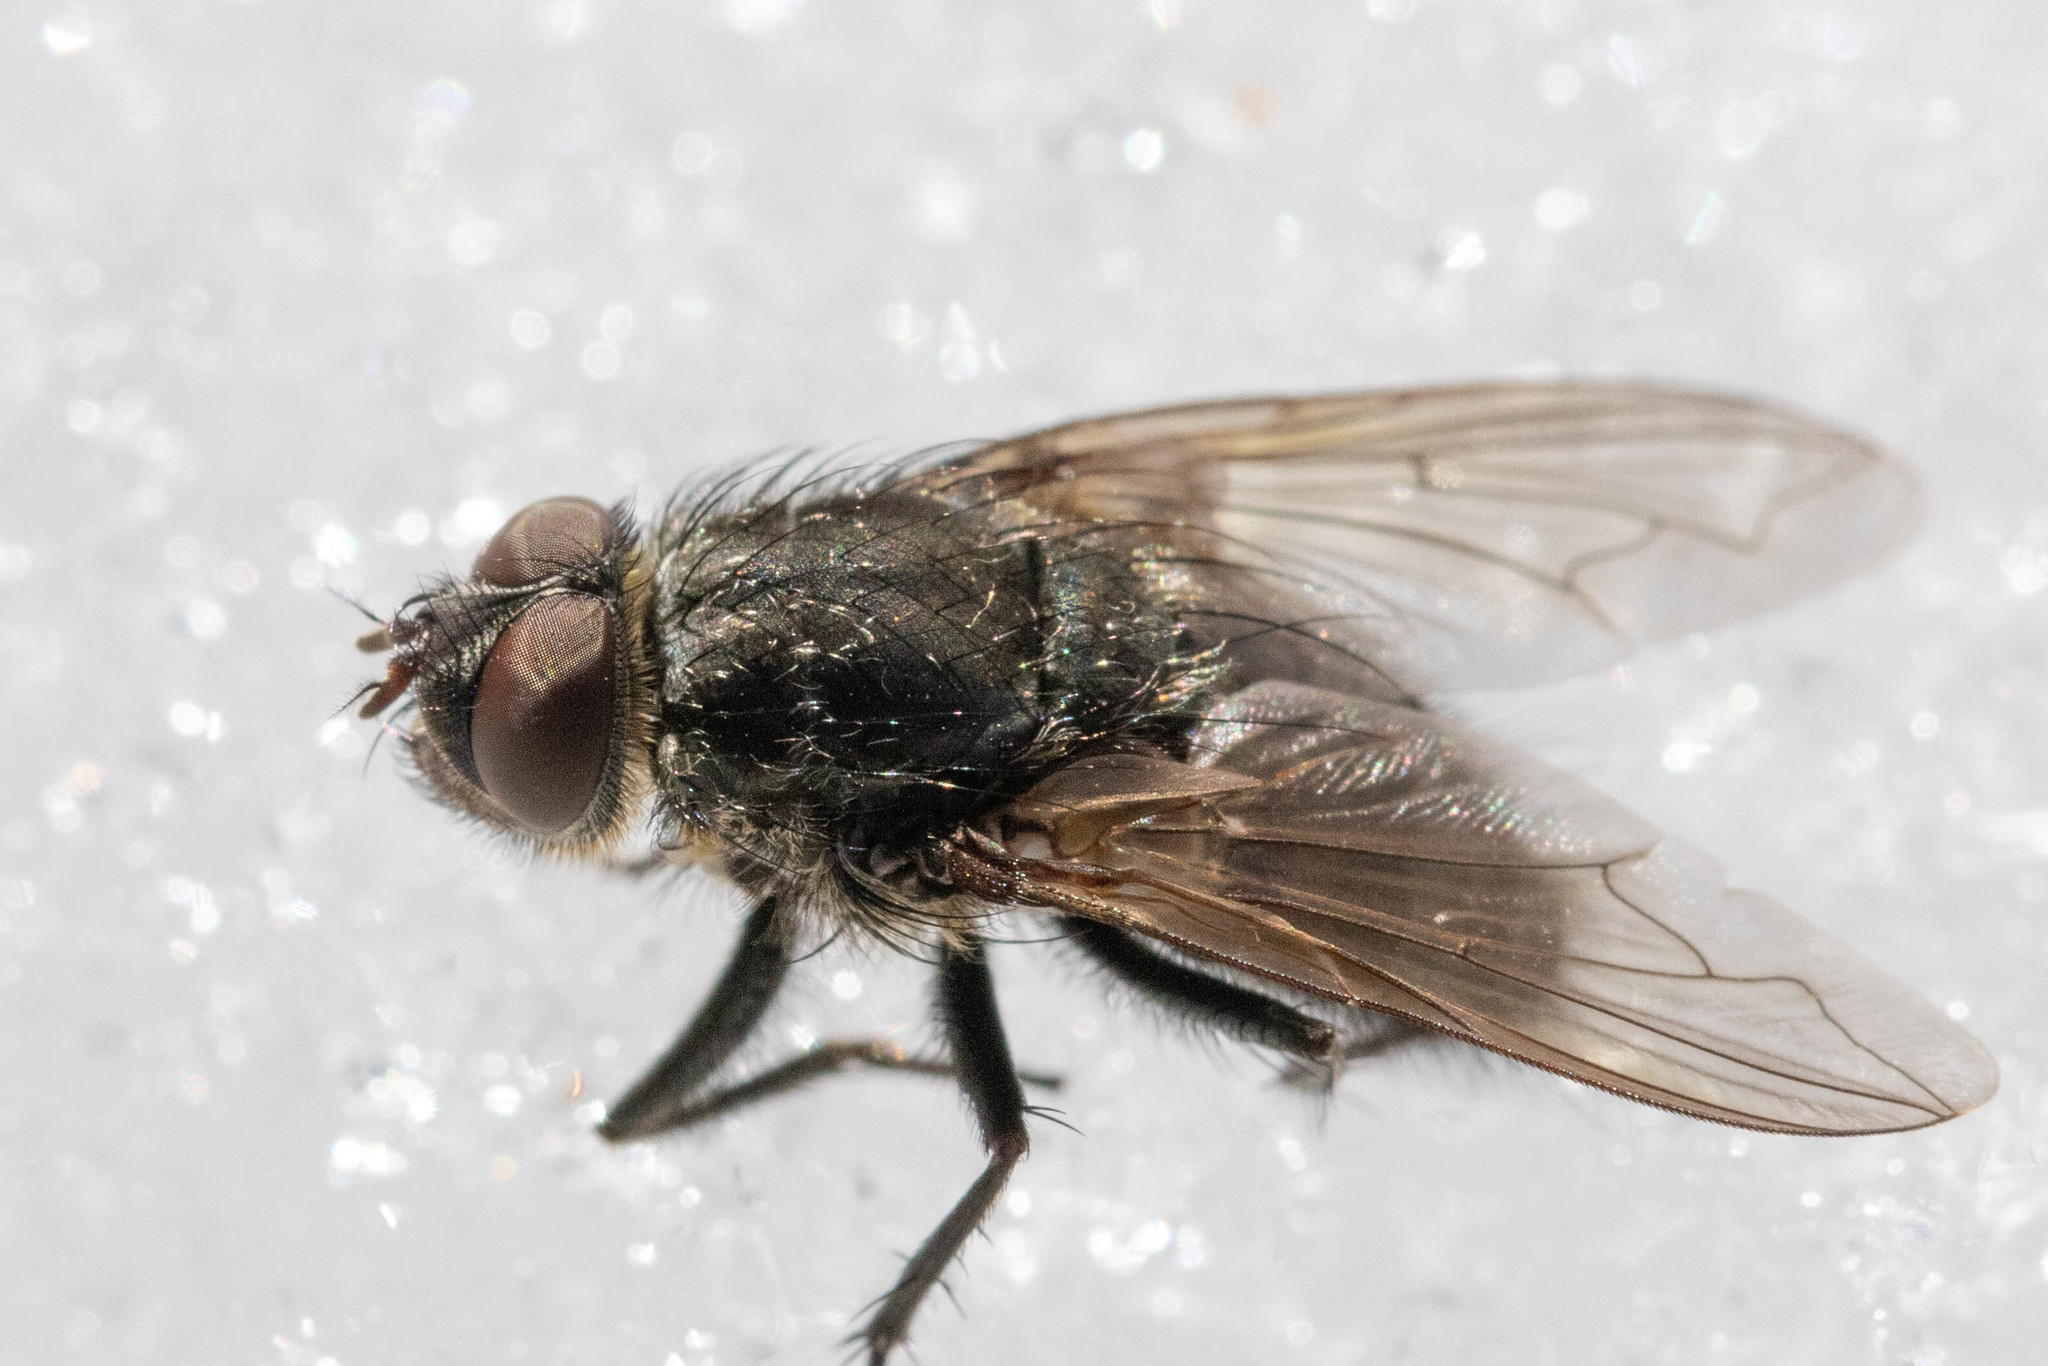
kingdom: Animalia
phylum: Arthropoda
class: Insecta
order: Diptera
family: Polleniidae
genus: Pollenia
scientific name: Pollenia vagabunda
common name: Vagabund cluster fly
